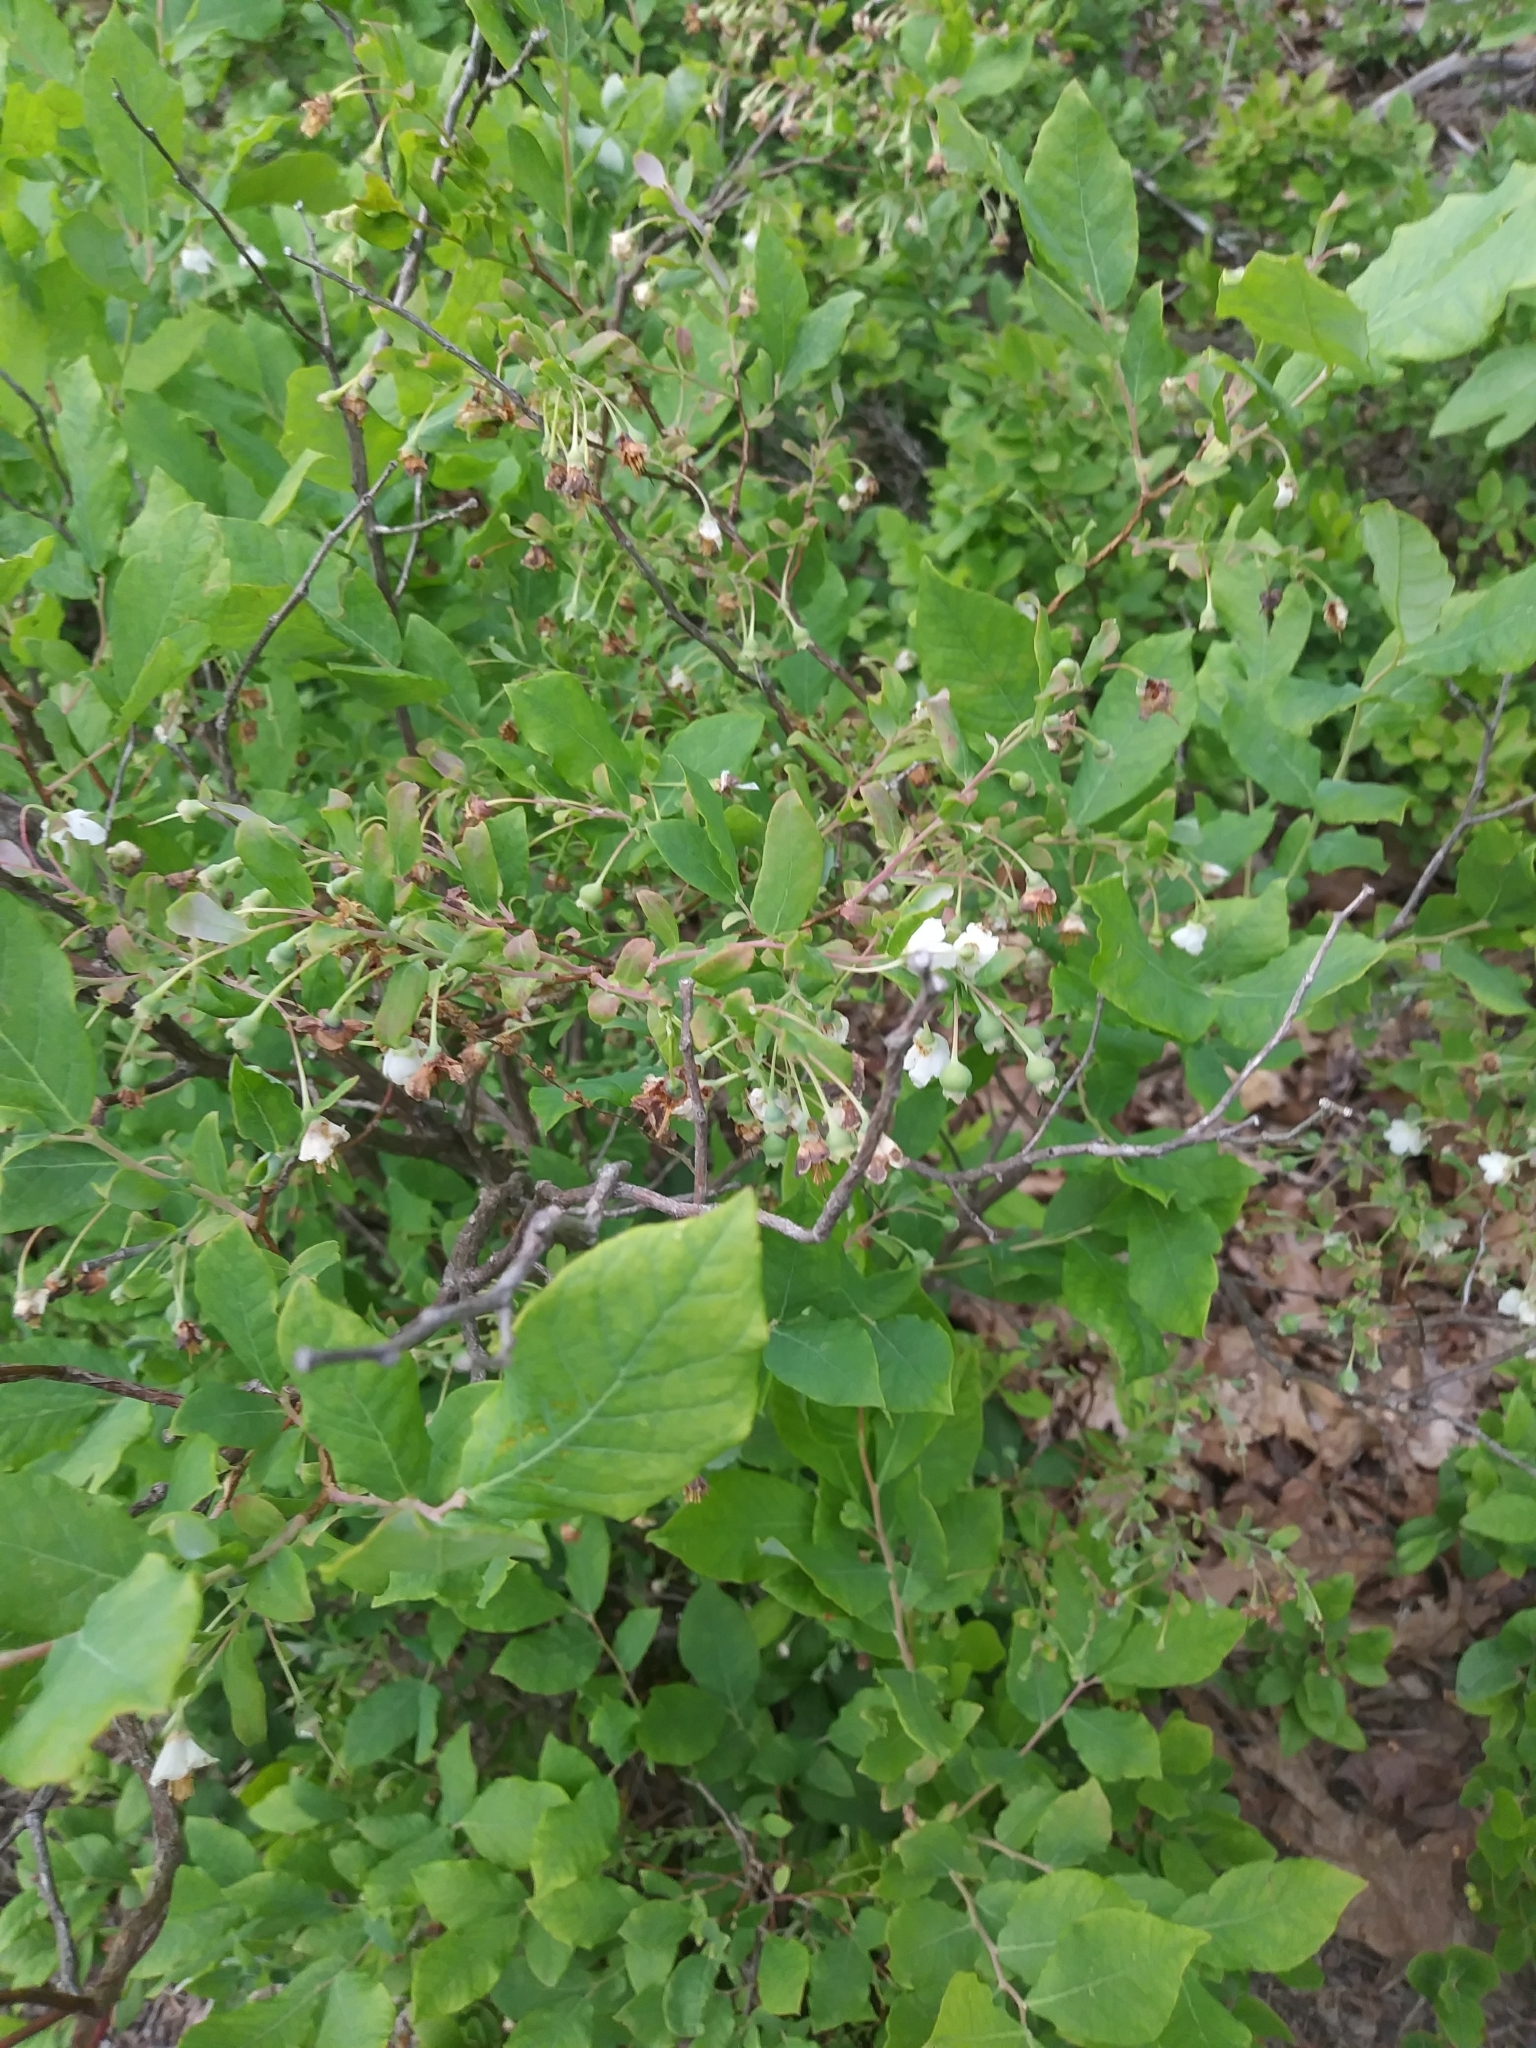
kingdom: Plantae
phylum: Tracheophyta
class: Magnoliopsida
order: Ericales
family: Ericaceae
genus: Vaccinium
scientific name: Vaccinium stamineum
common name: Deerberry
